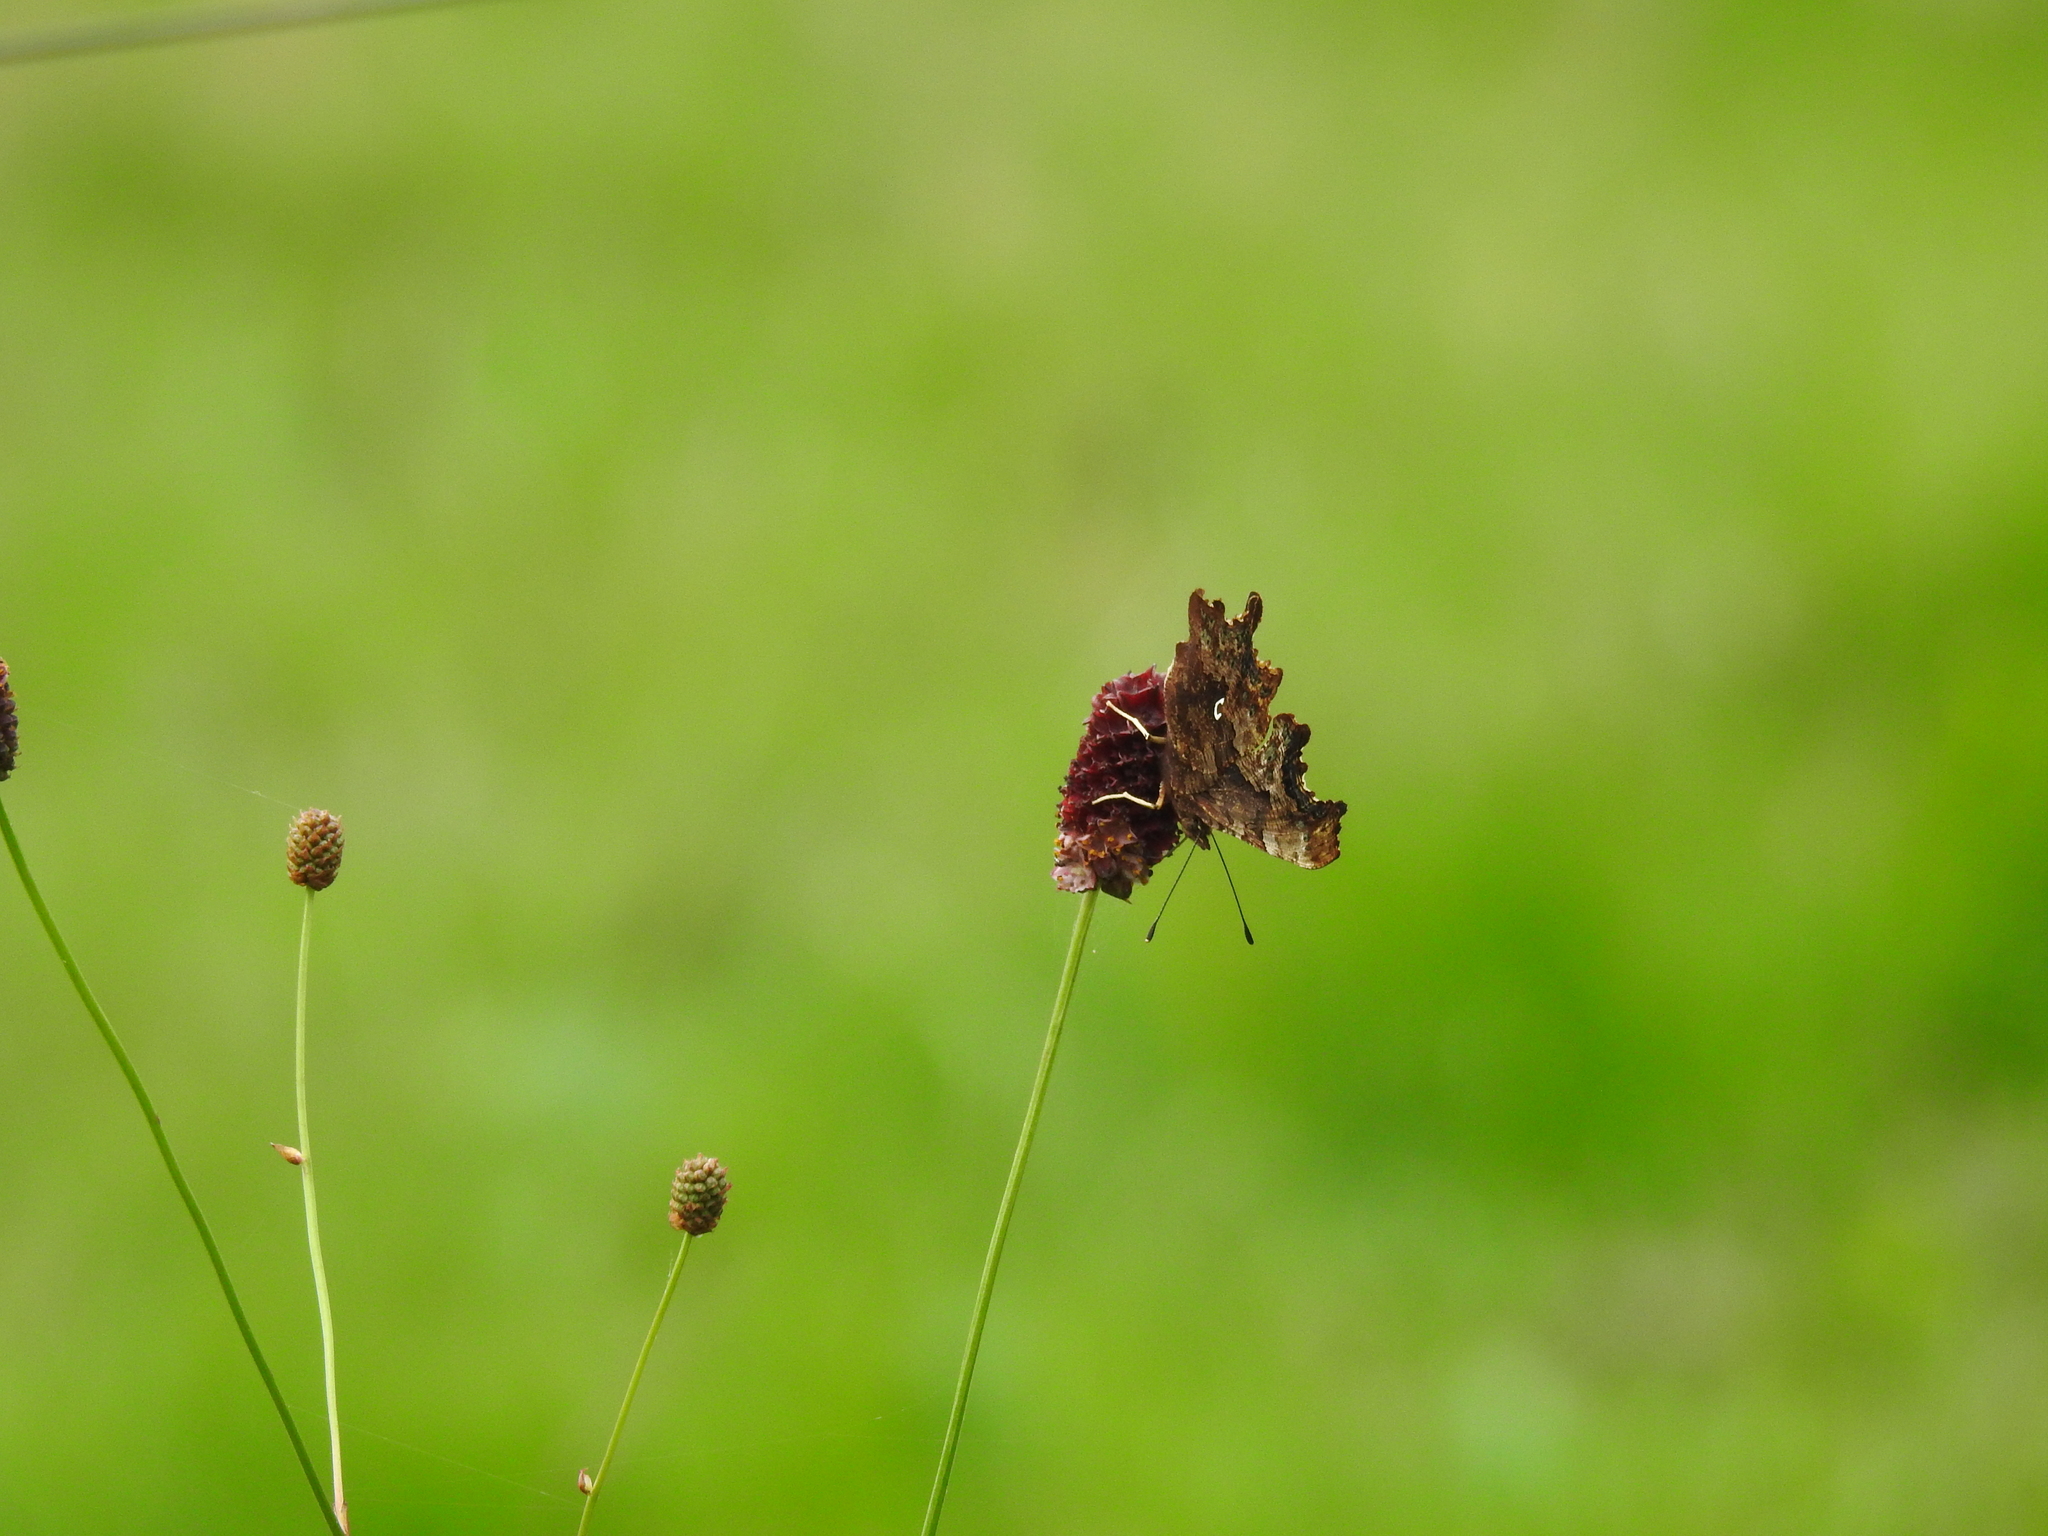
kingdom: Animalia
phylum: Arthropoda
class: Insecta
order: Lepidoptera
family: Nymphalidae
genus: Polygonia
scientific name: Polygonia c-album
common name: Comma
